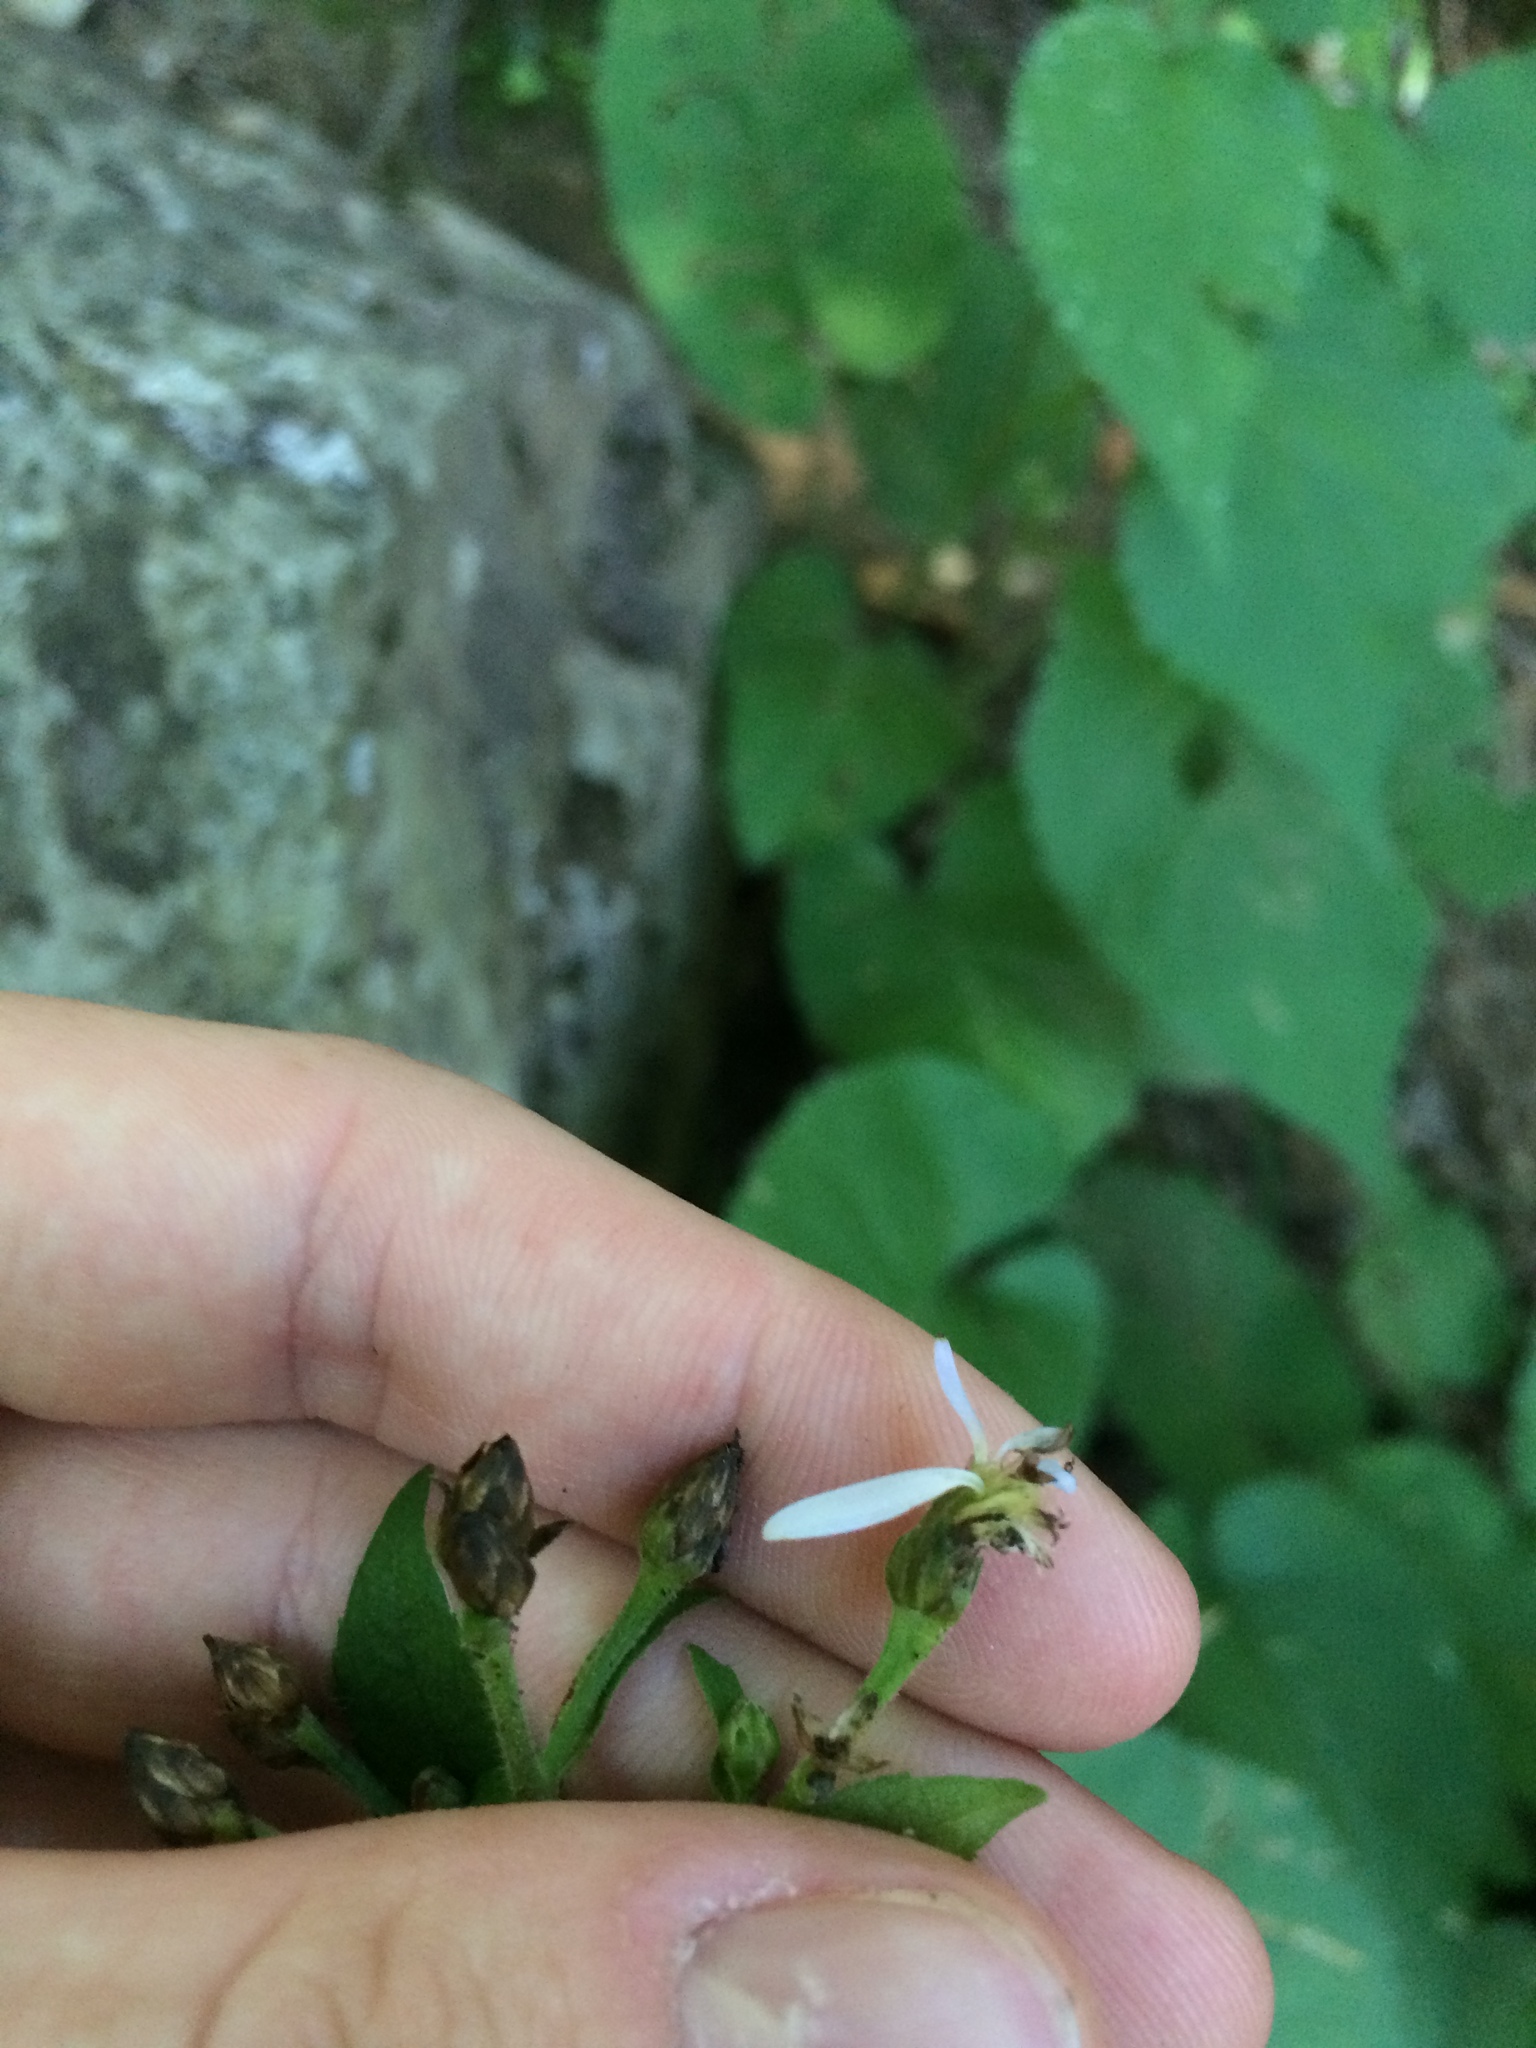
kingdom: Plantae
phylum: Tracheophyta
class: Magnoliopsida
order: Asterales
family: Asteraceae
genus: Eurybia
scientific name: Eurybia macrophylla
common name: Big-leaved aster
